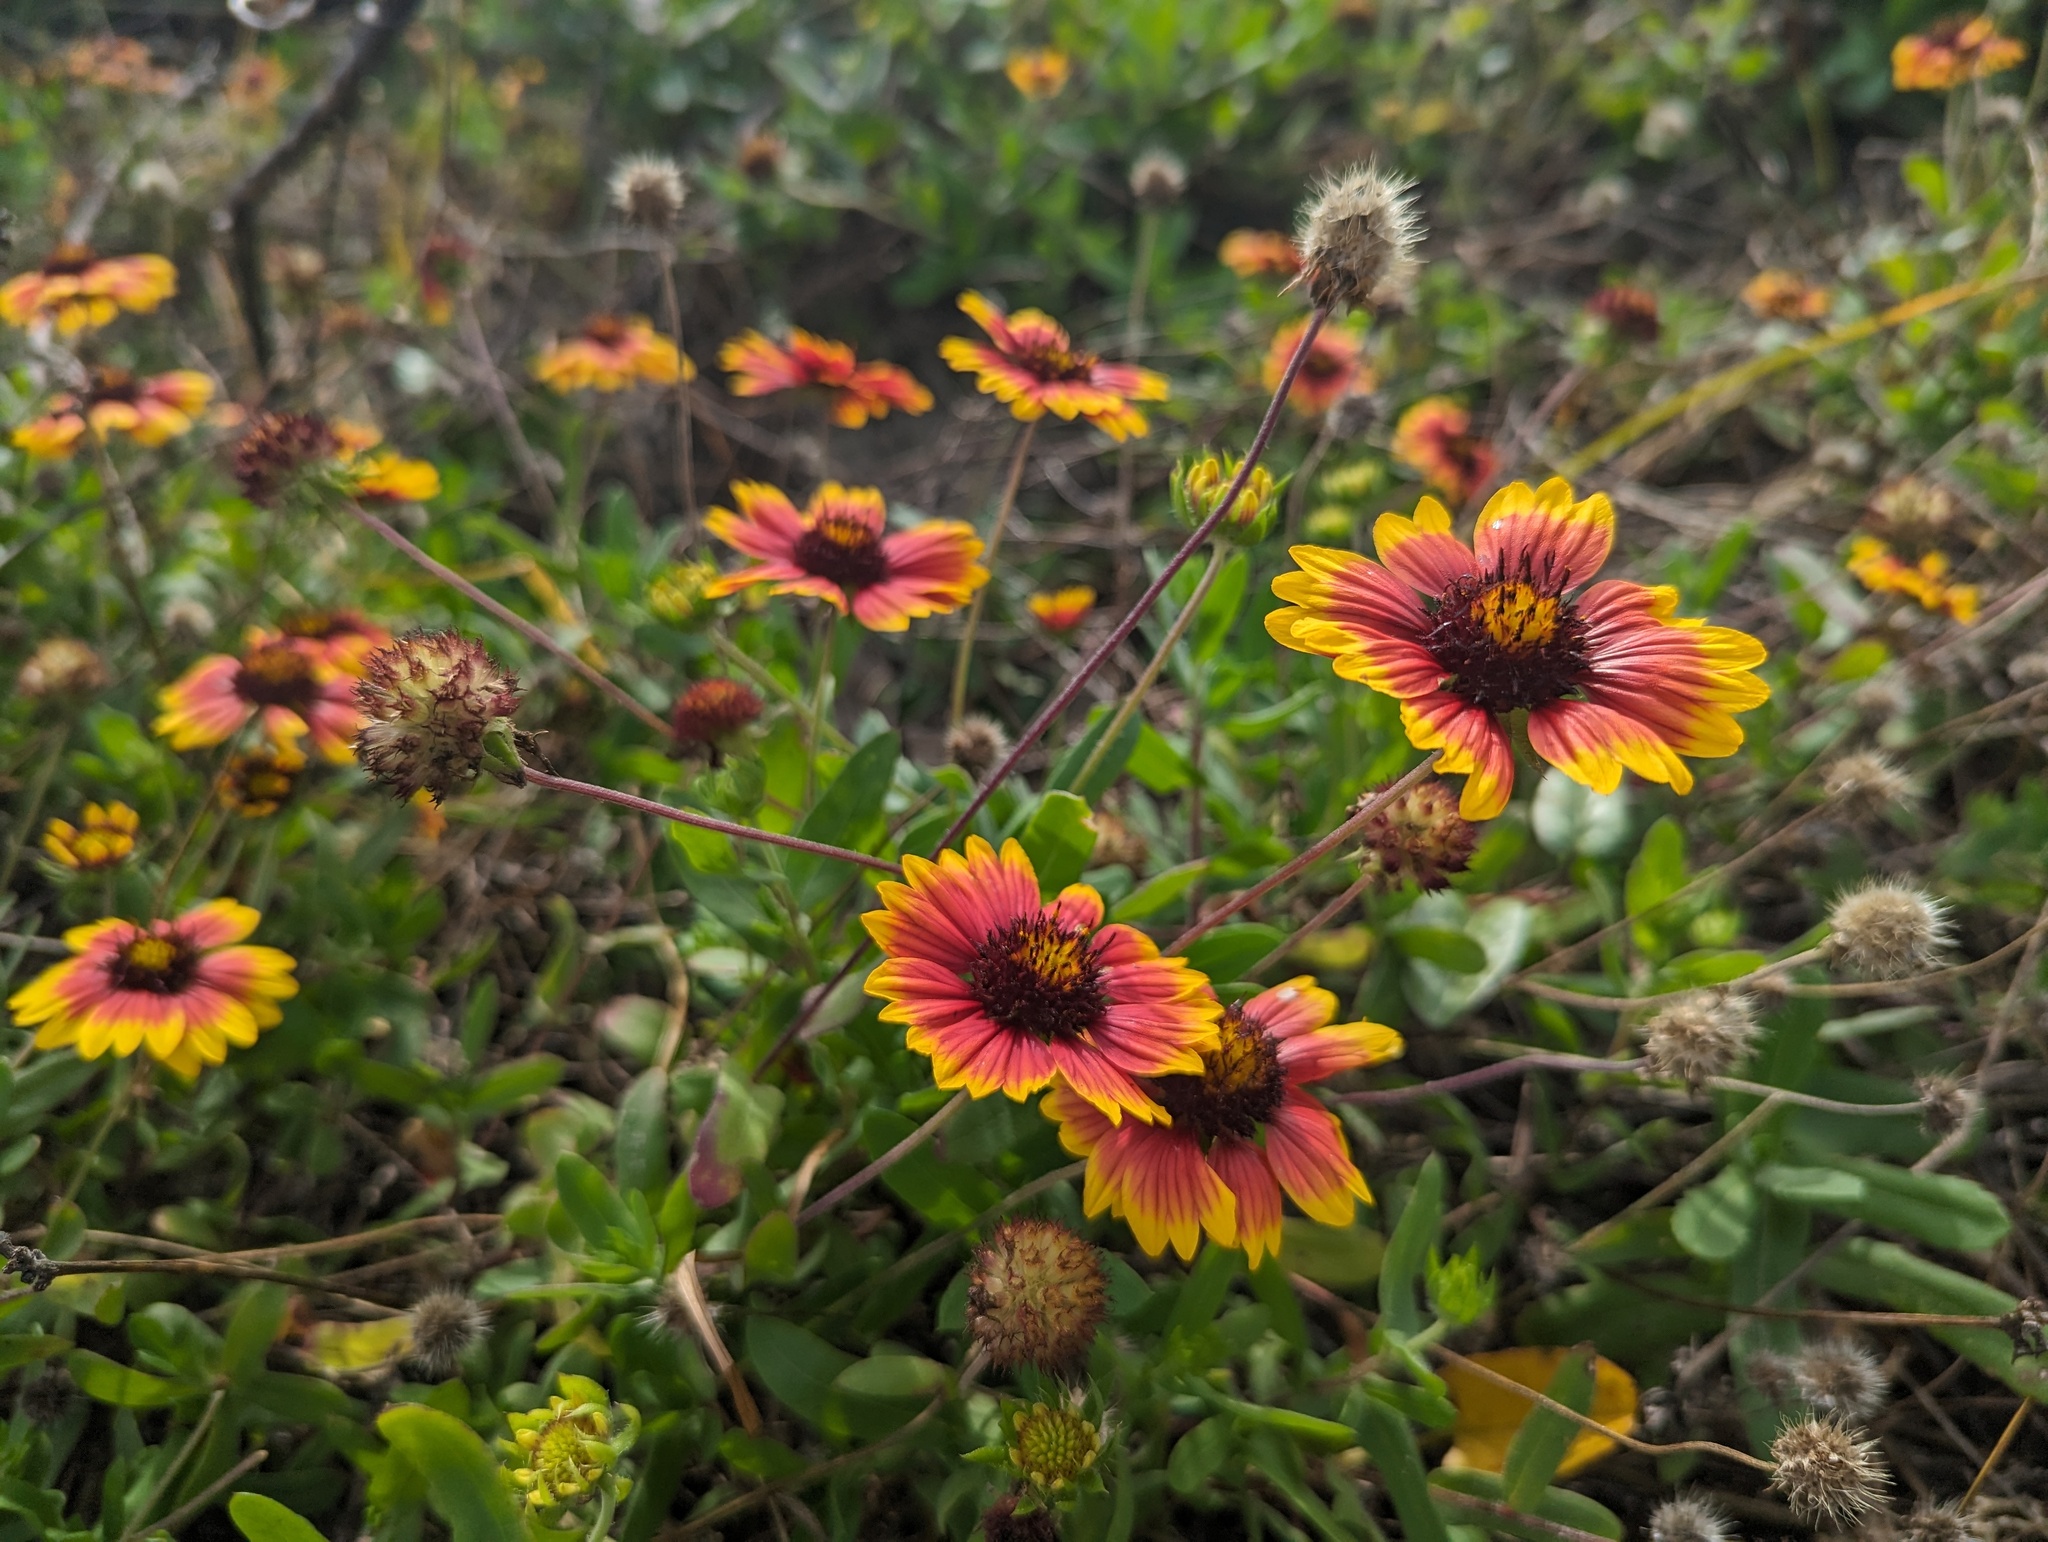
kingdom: Plantae
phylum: Tracheophyta
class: Magnoliopsida
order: Asterales
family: Asteraceae
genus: Gaillardia
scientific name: Gaillardia pulchella
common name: Firewheel
